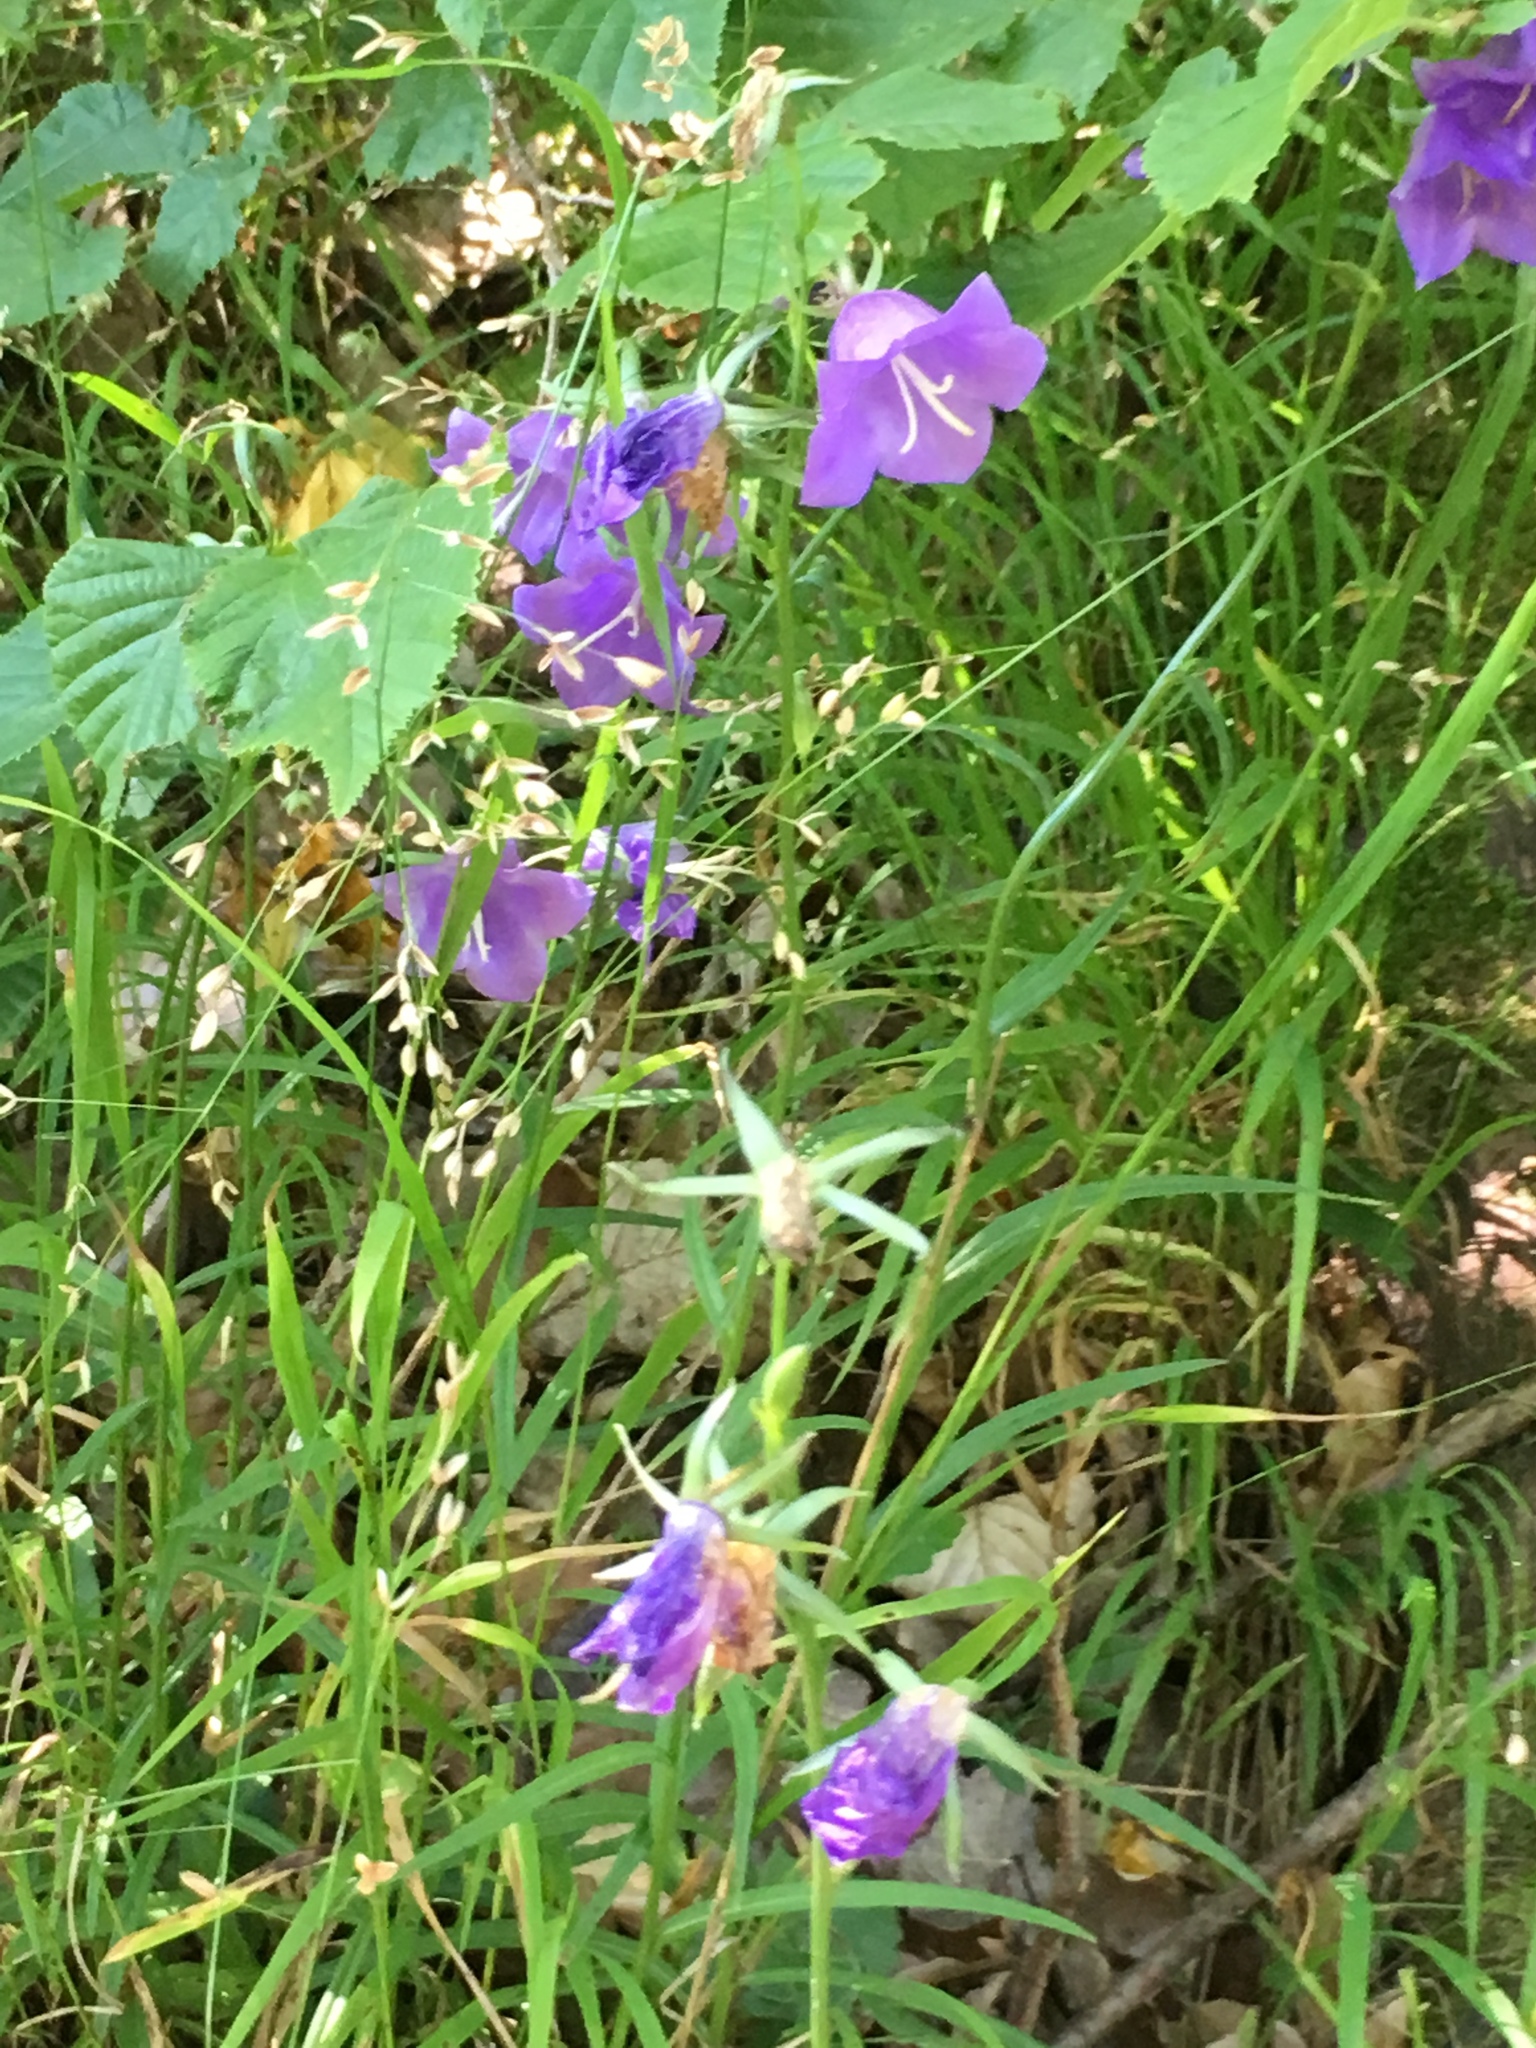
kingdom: Plantae
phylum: Tracheophyta
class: Magnoliopsida
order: Asterales
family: Campanulaceae
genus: Campanula
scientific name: Campanula persicifolia
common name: Peach-leaved bellflower
